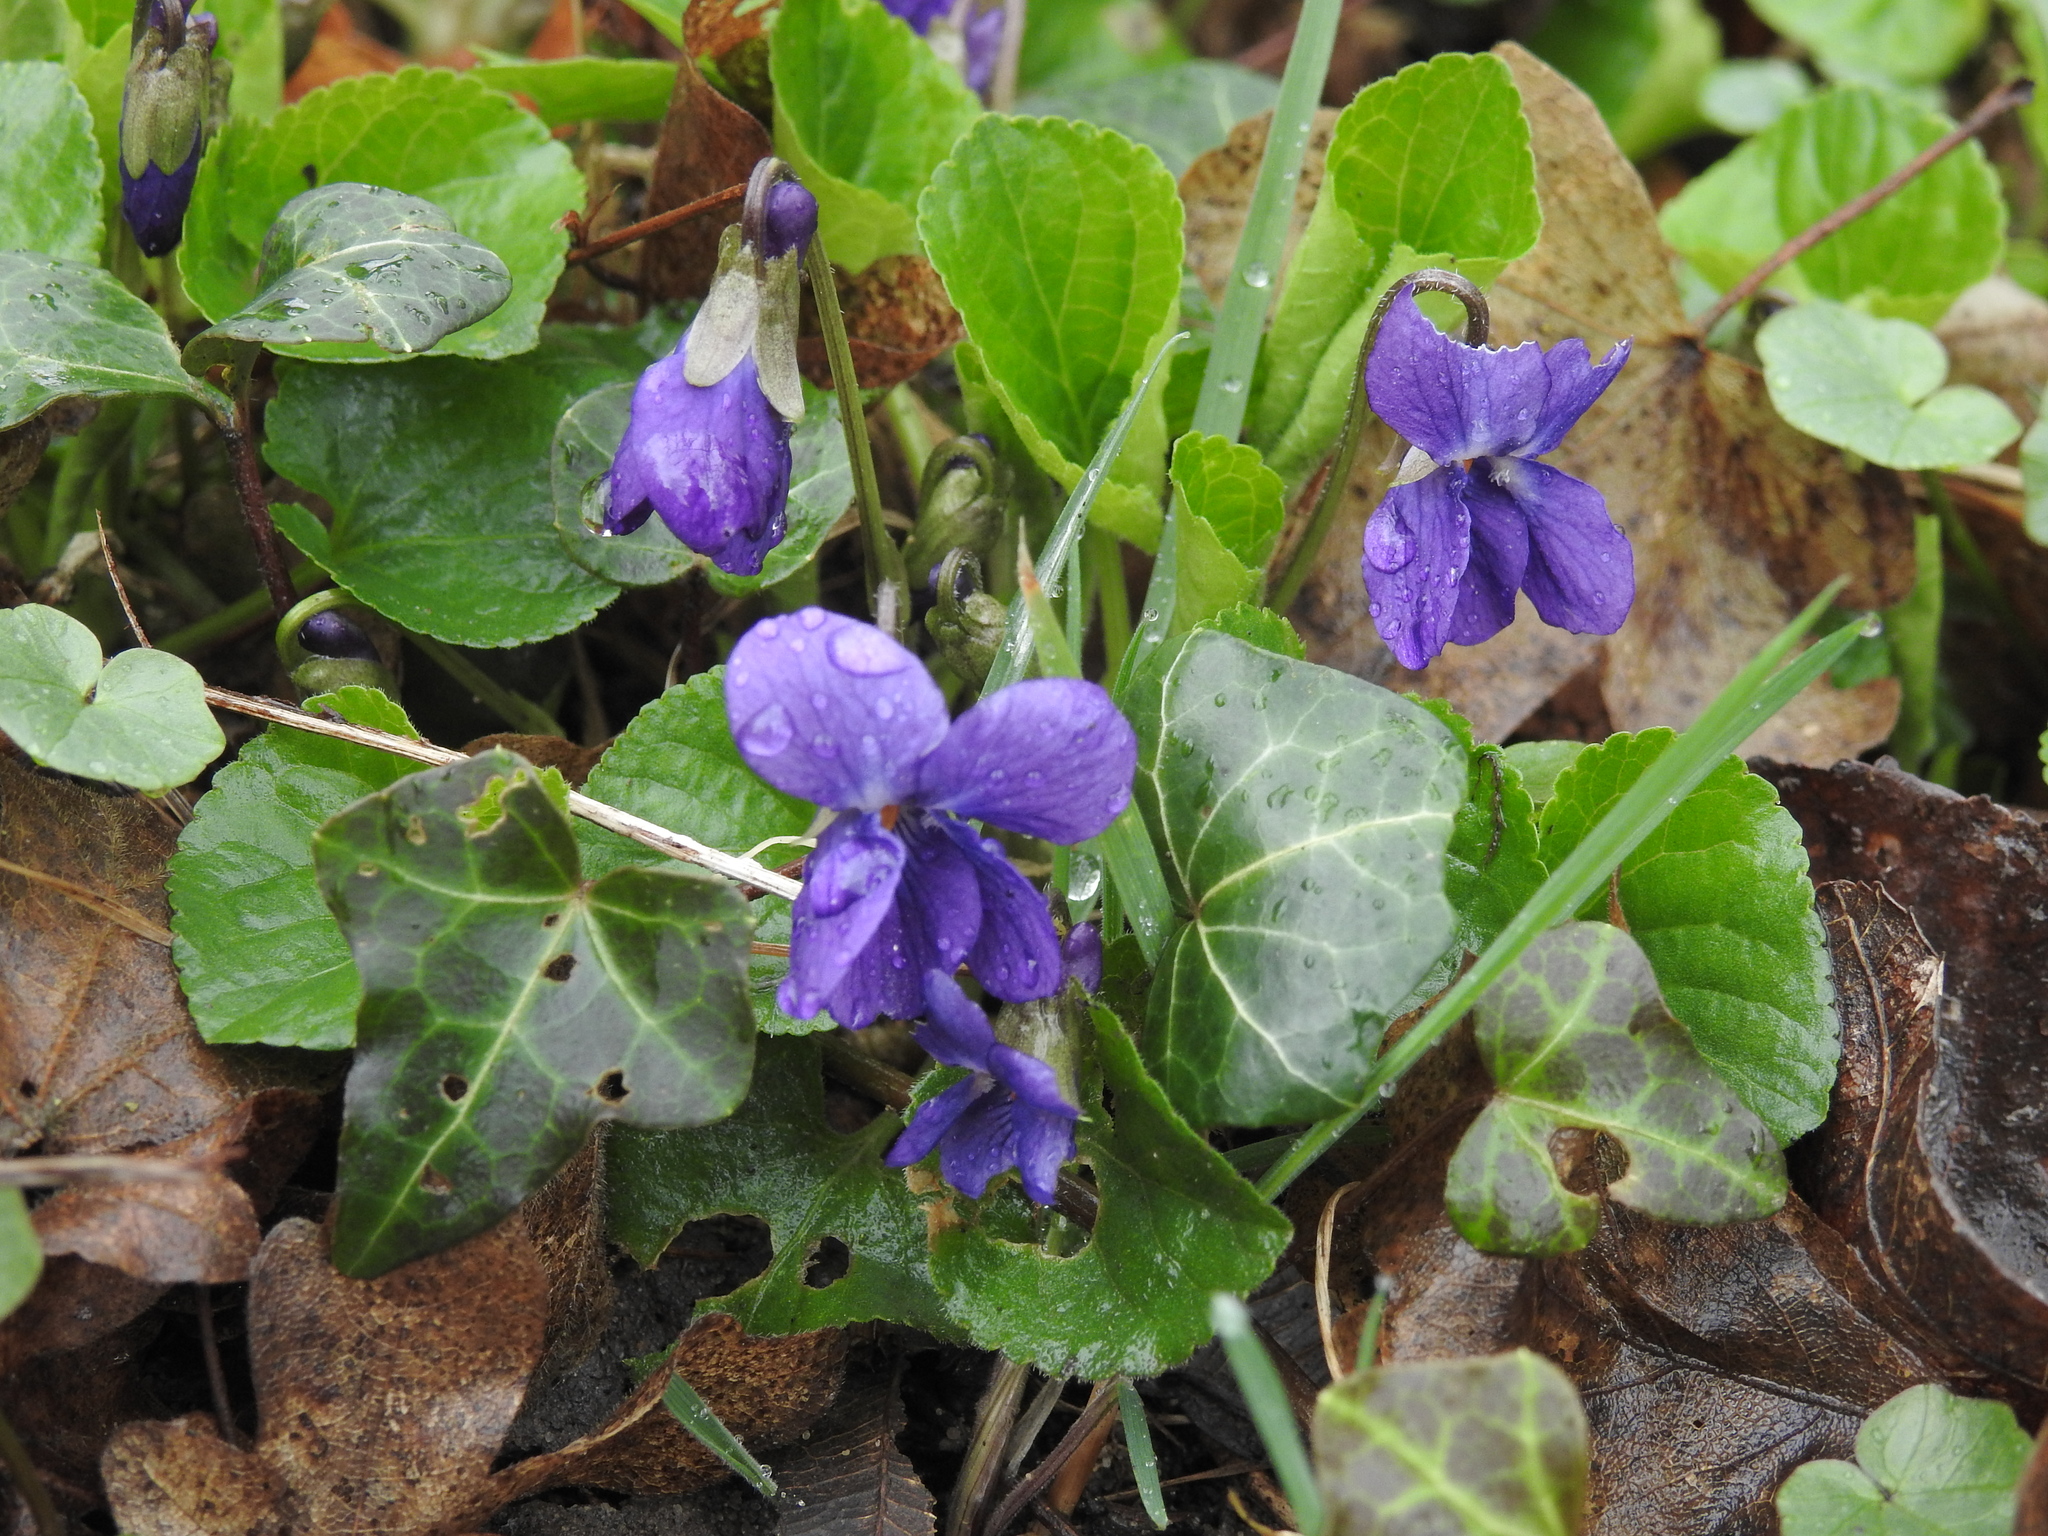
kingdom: Plantae
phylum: Tracheophyta
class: Magnoliopsida
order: Malpighiales
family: Violaceae
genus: Viola
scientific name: Viola odorata
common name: Sweet violet
